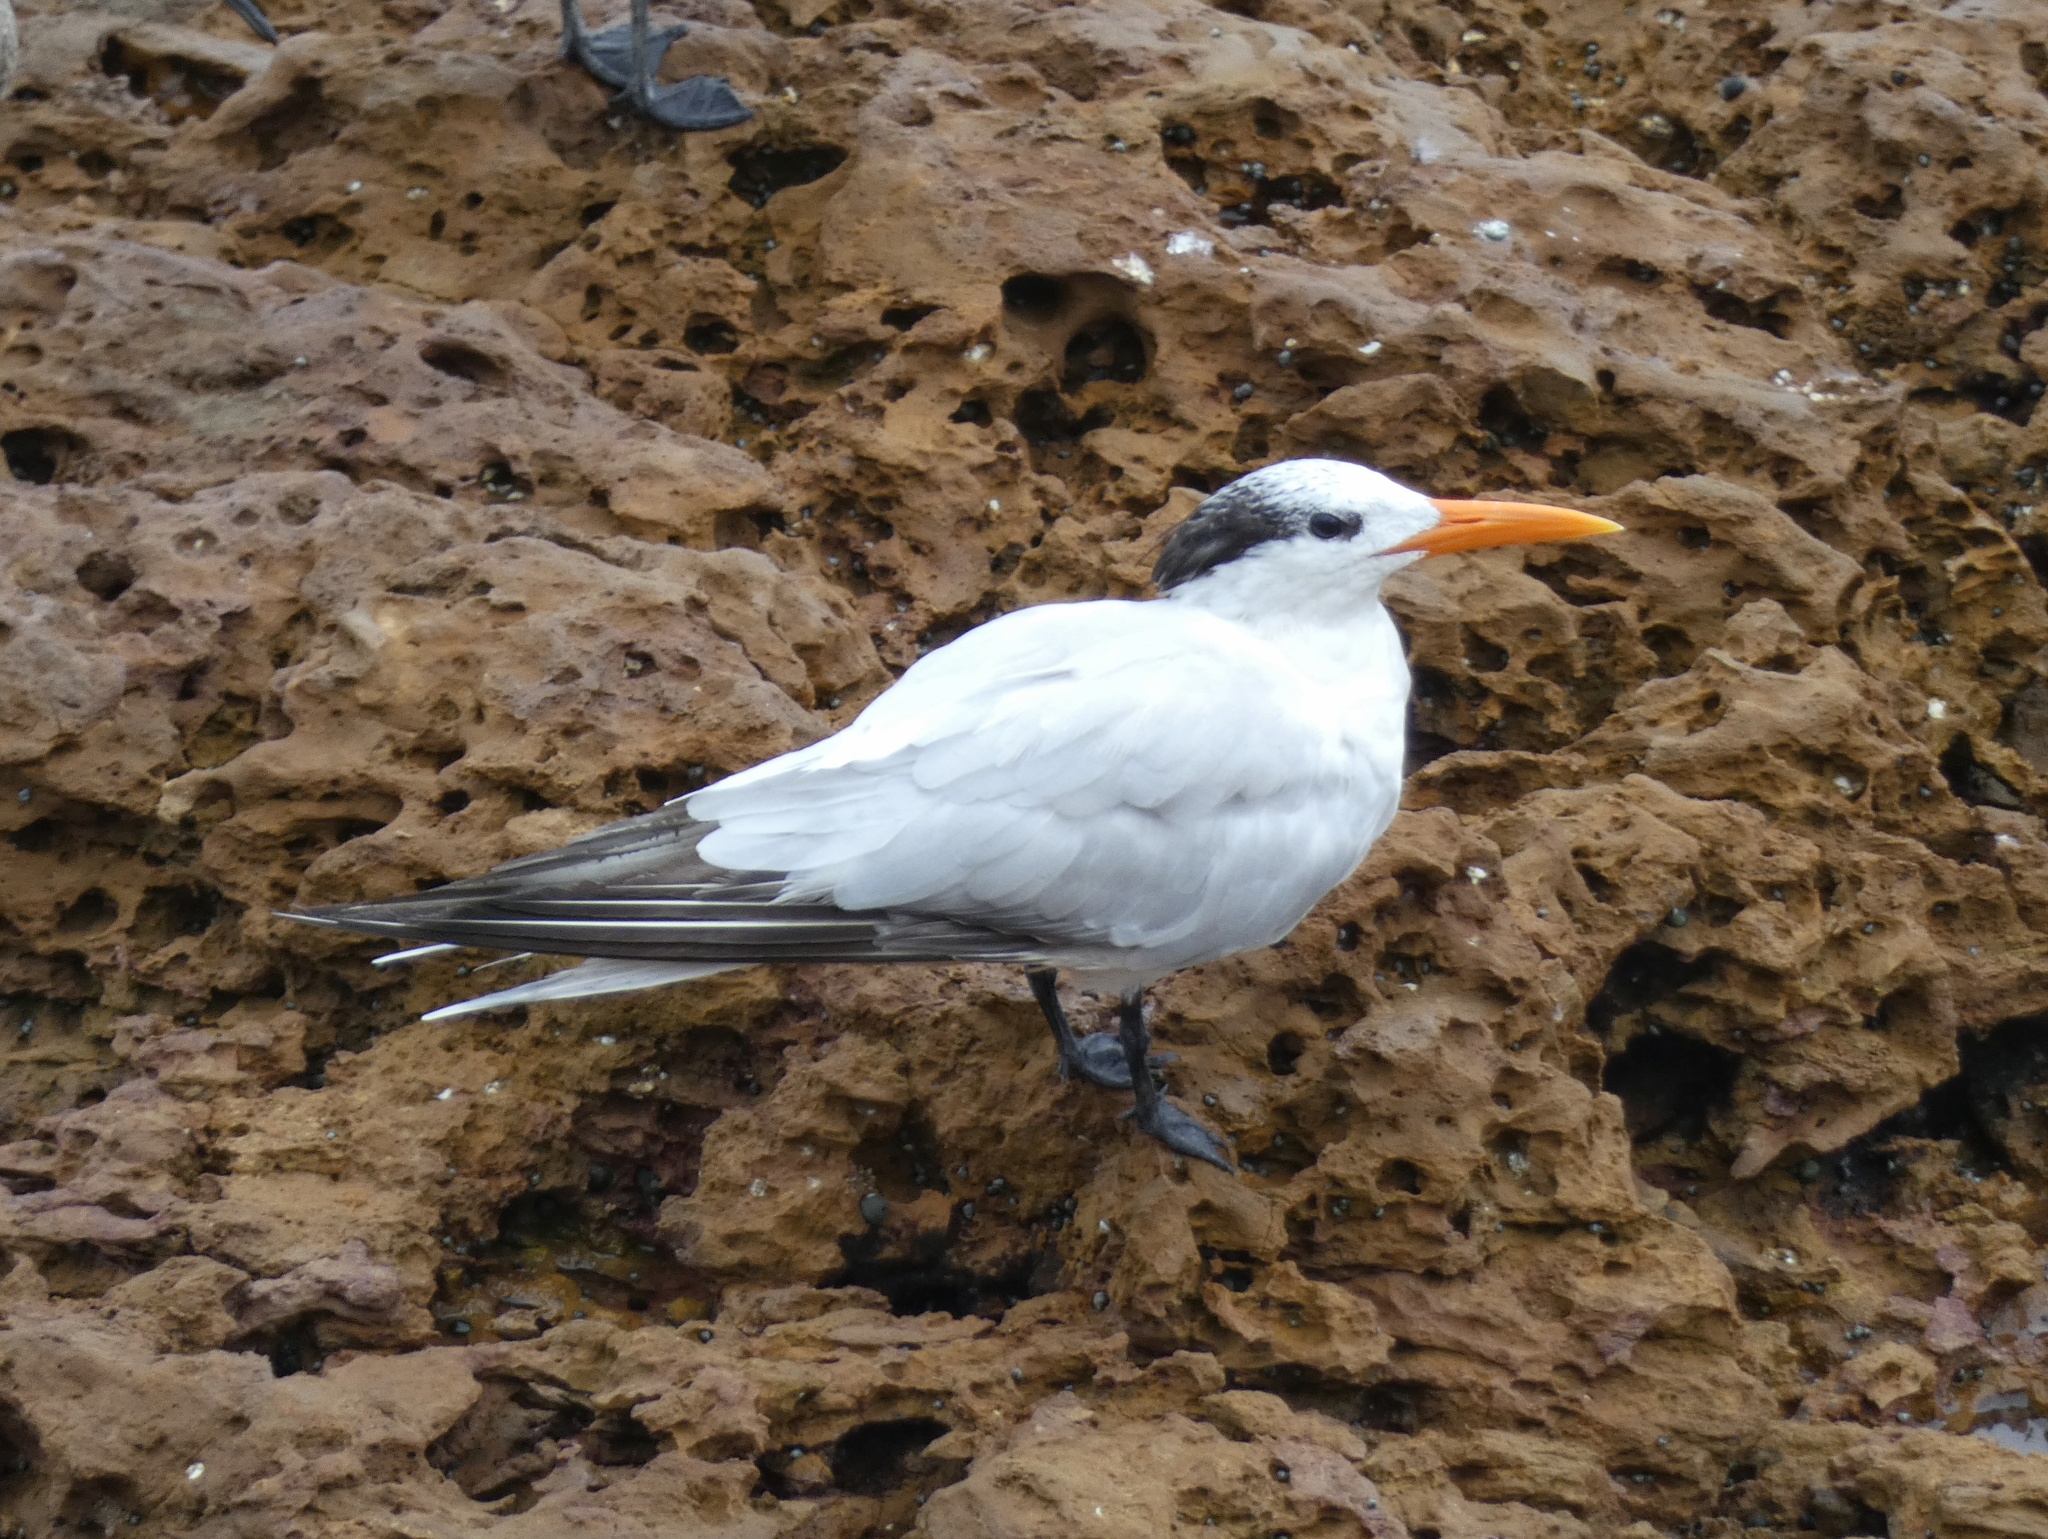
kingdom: Animalia
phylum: Chordata
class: Aves
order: Charadriiformes
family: Laridae
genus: Thalasseus
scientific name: Thalasseus maximus
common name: Royal tern
